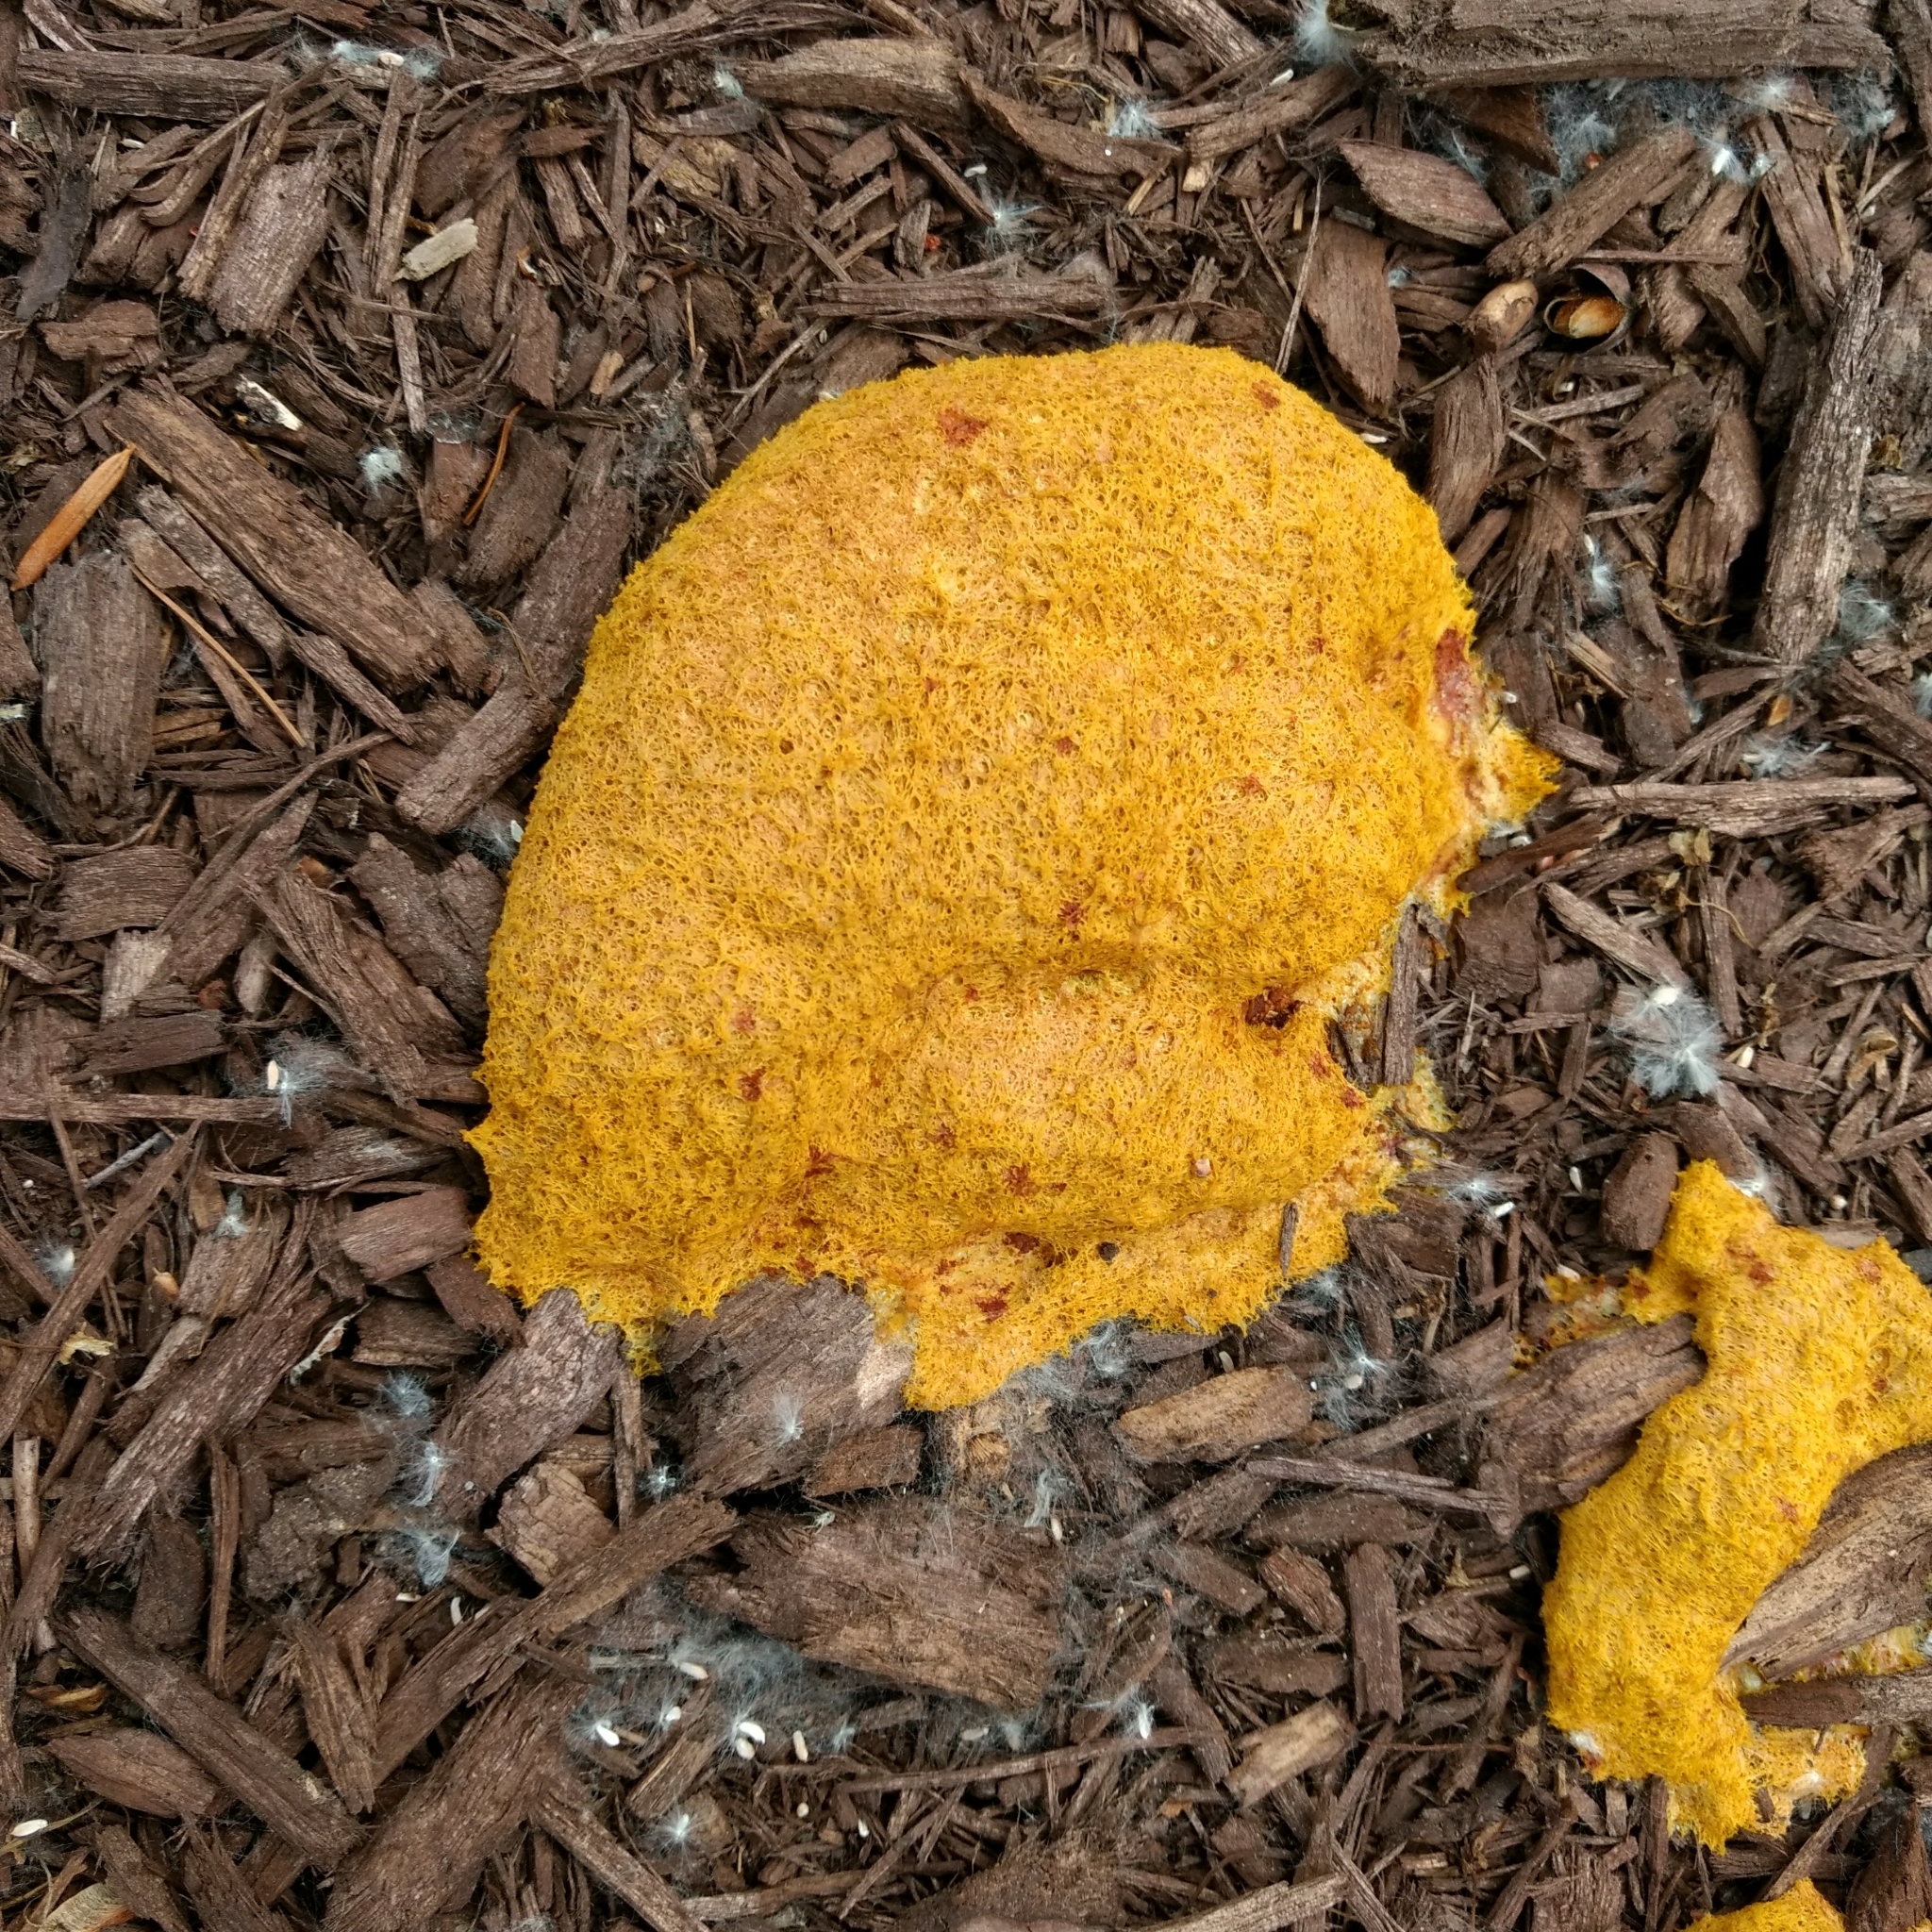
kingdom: Protozoa
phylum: Mycetozoa
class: Myxomycetes
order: Physarales
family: Physaraceae
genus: Fuligo
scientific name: Fuligo septica
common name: Dog vomit slime mold
